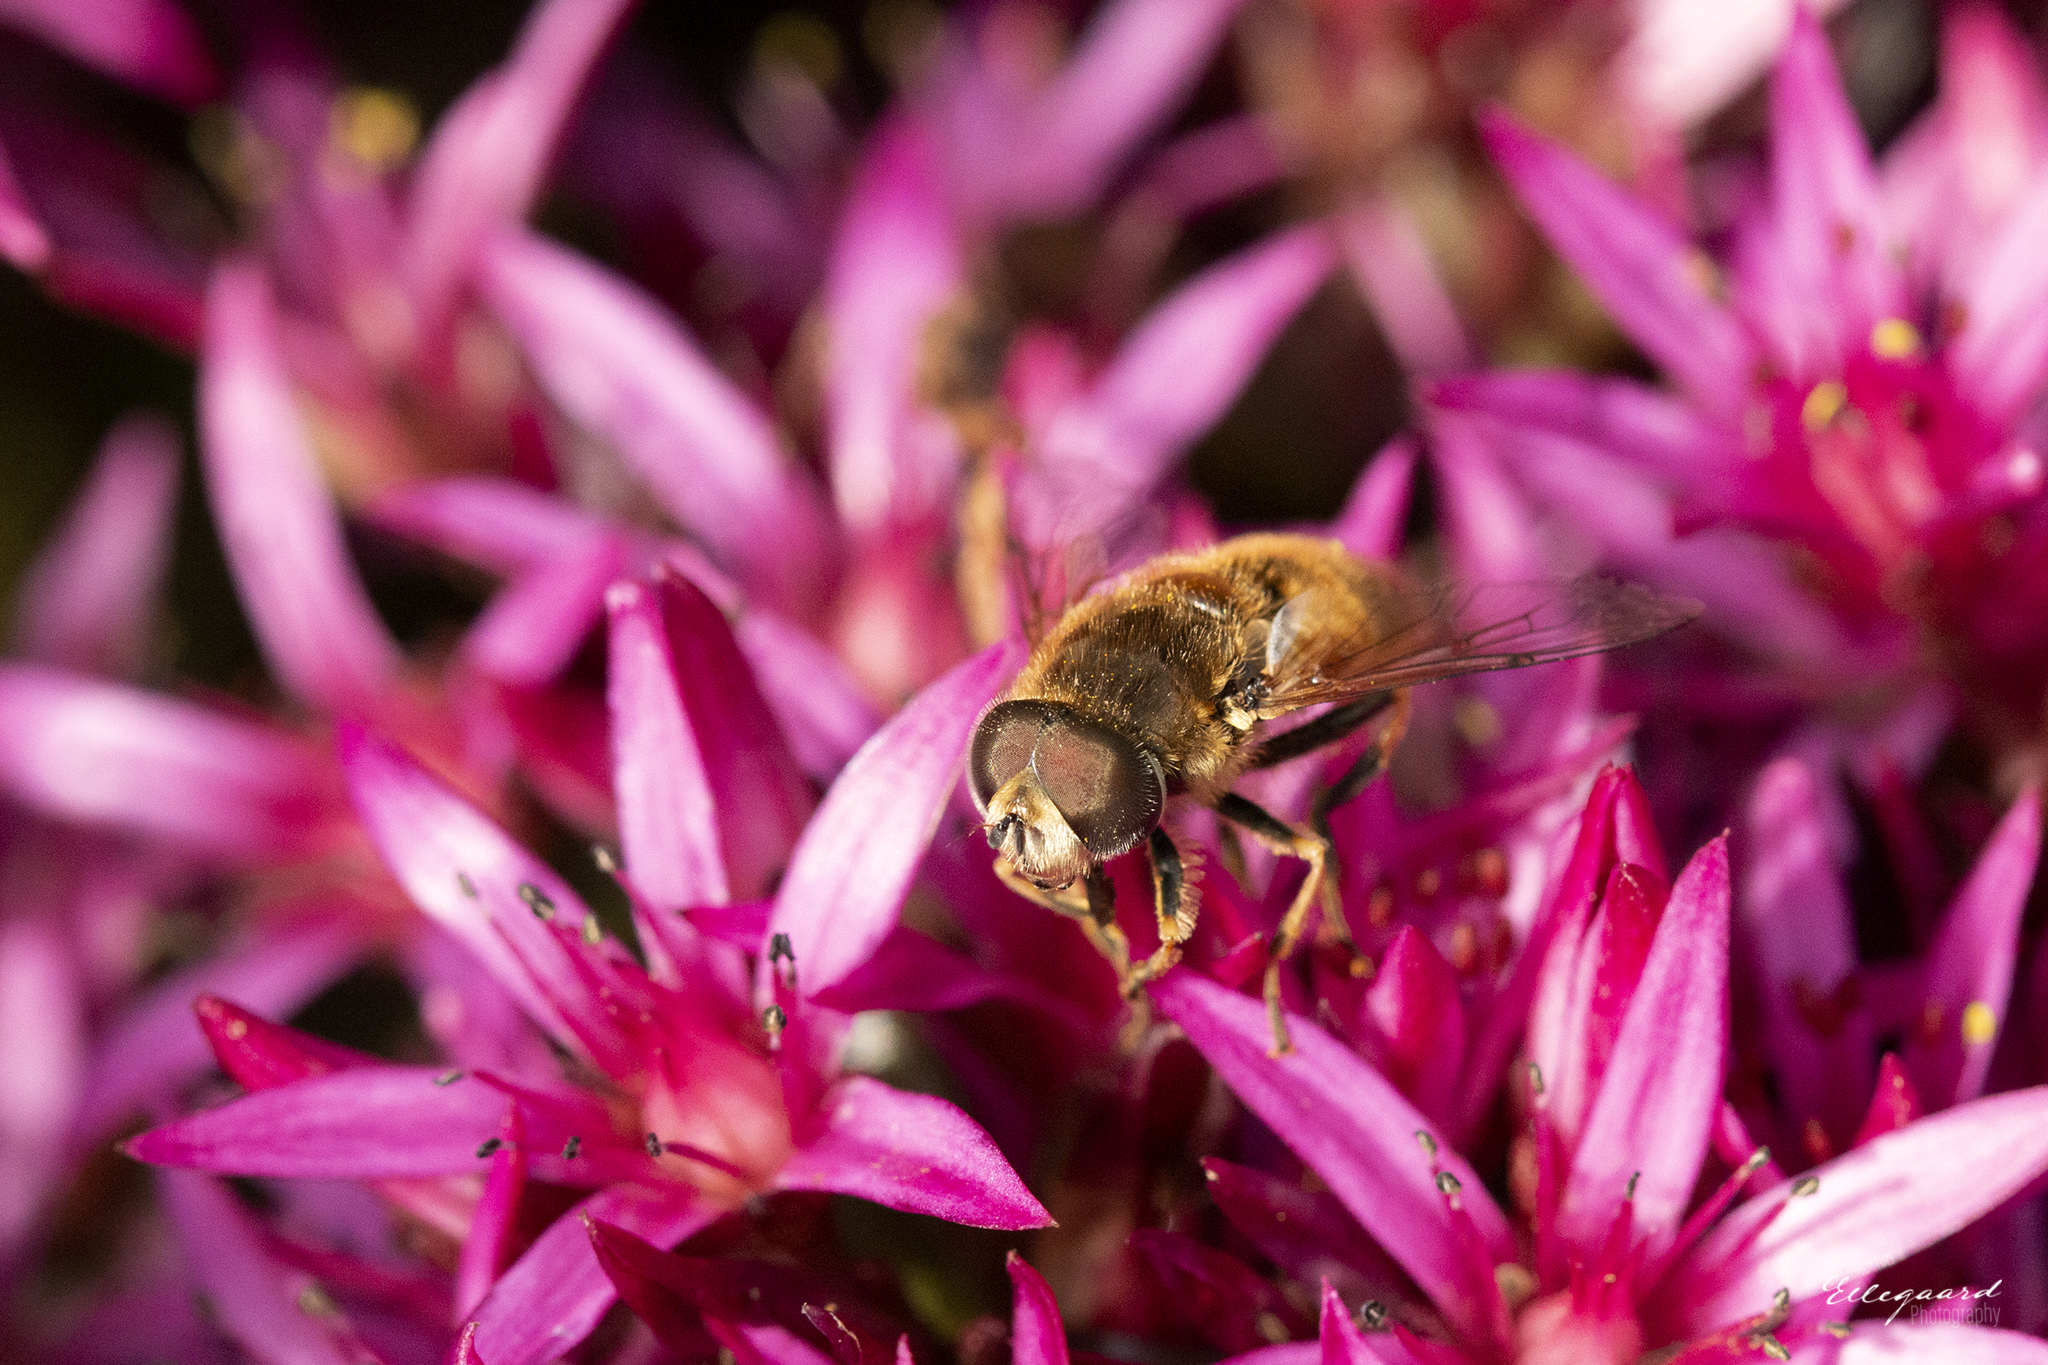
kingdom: Animalia
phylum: Arthropoda
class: Insecta
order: Diptera
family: Syrphidae
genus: Eristalis
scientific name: Eristalis arbustorum
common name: Hover fly
